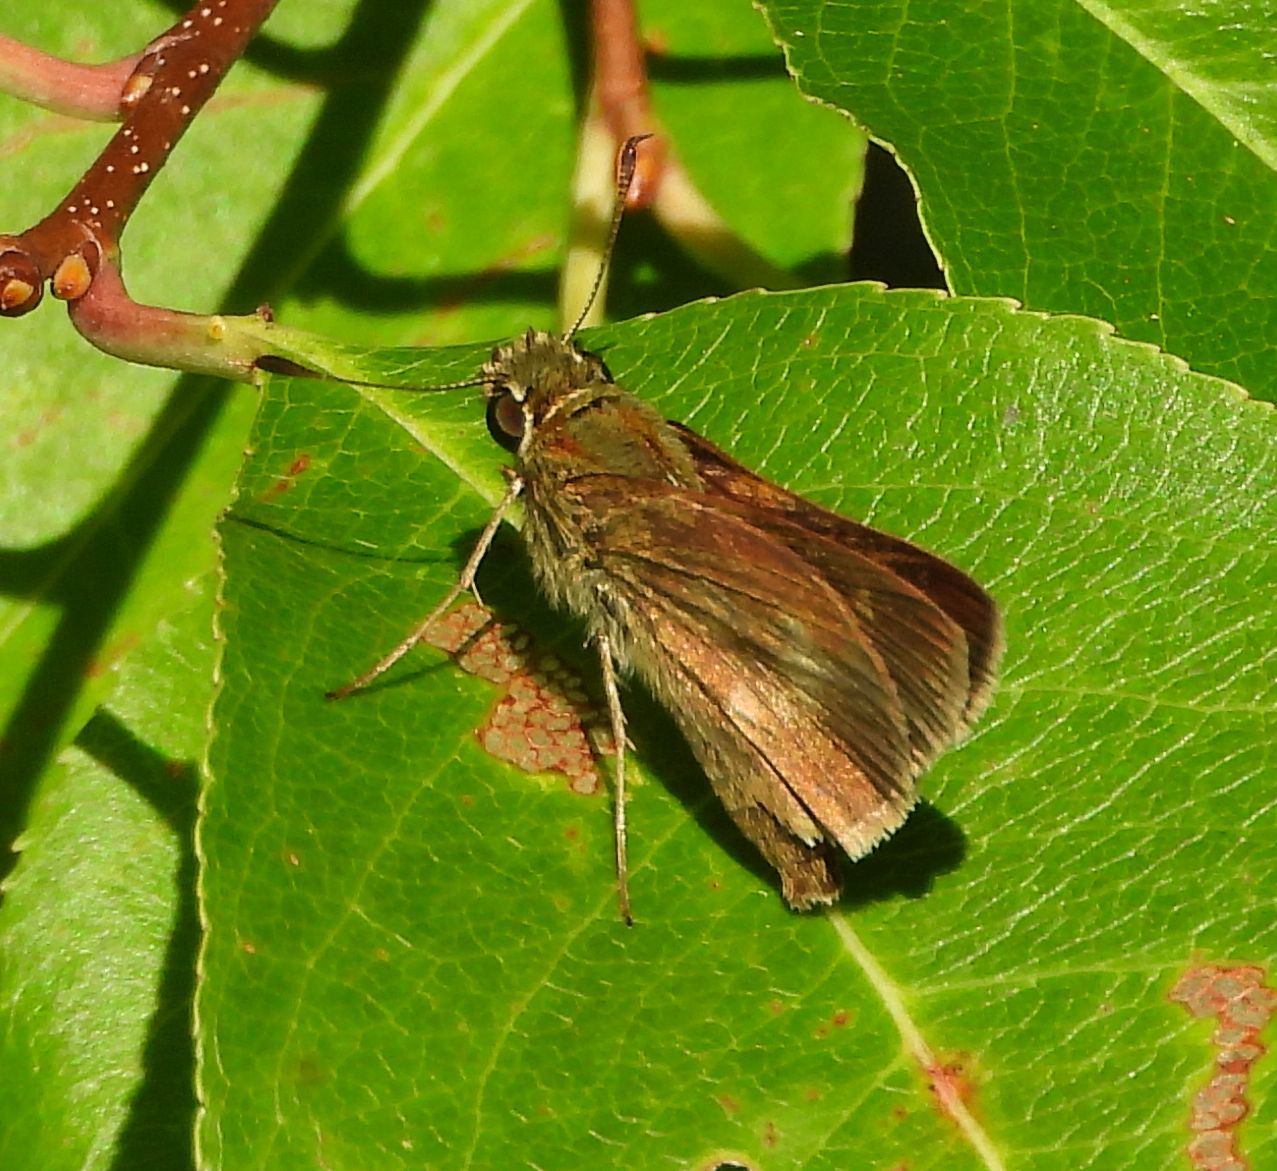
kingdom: Animalia
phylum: Arthropoda
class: Insecta
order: Lepidoptera
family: Hesperiidae
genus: Polites
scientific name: Polites egeremet
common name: Northern broken-dash
